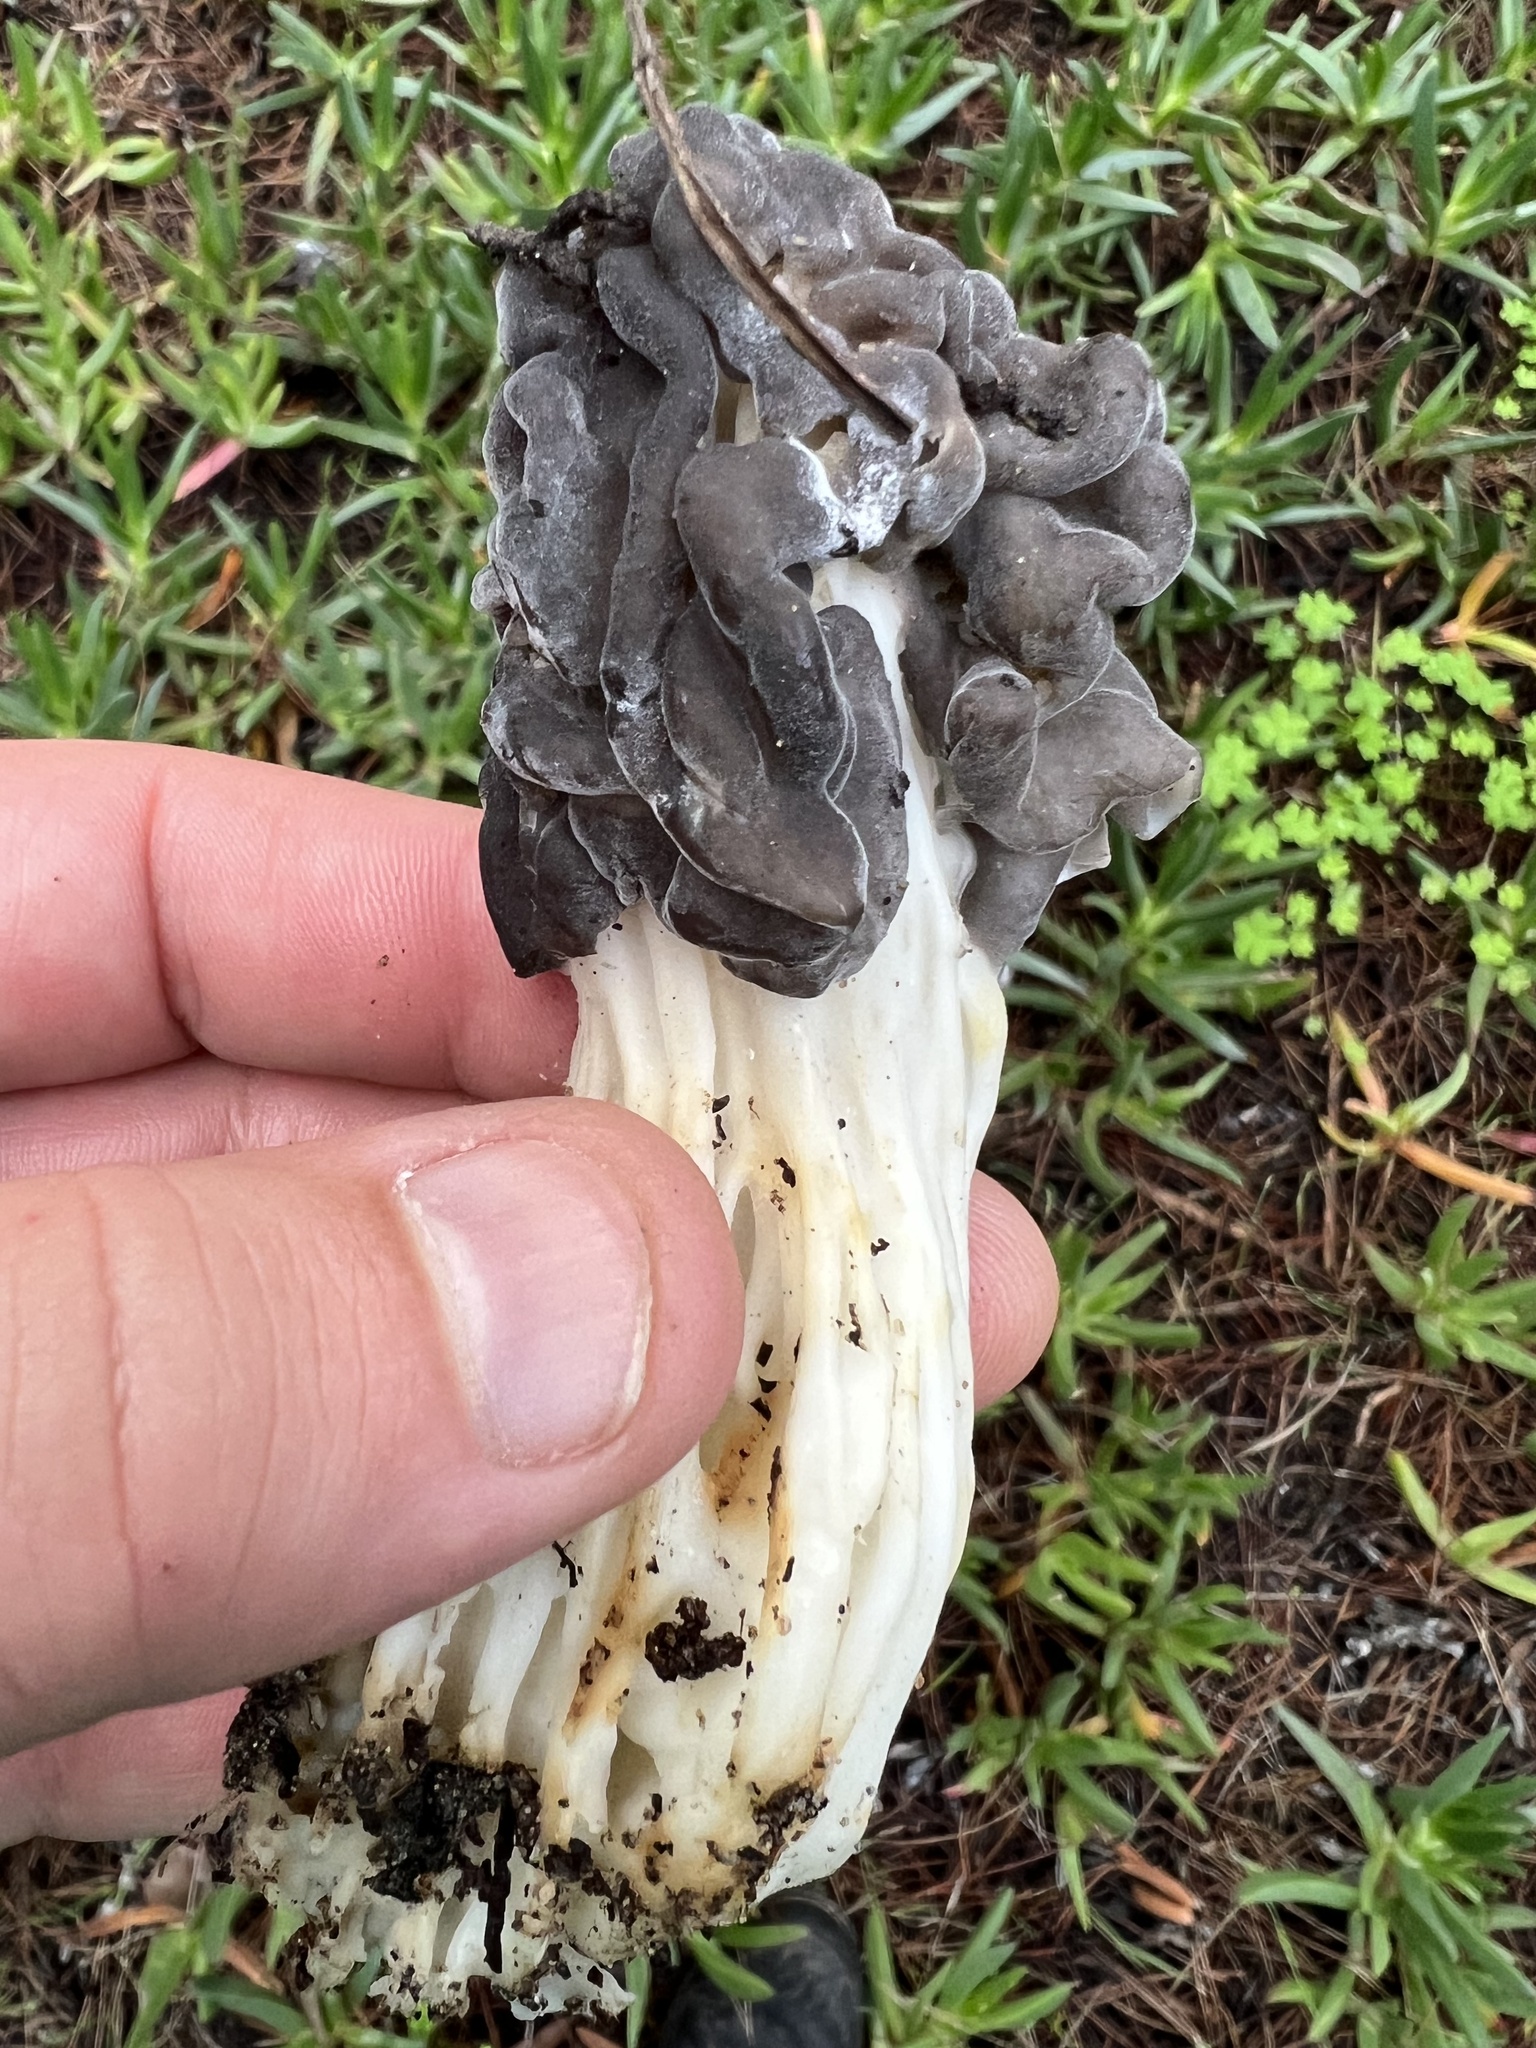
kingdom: Fungi
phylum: Ascomycota
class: Pezizomycetes
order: Pezizales
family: Helvellaceae
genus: Helvella
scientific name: Helvella vespertina
